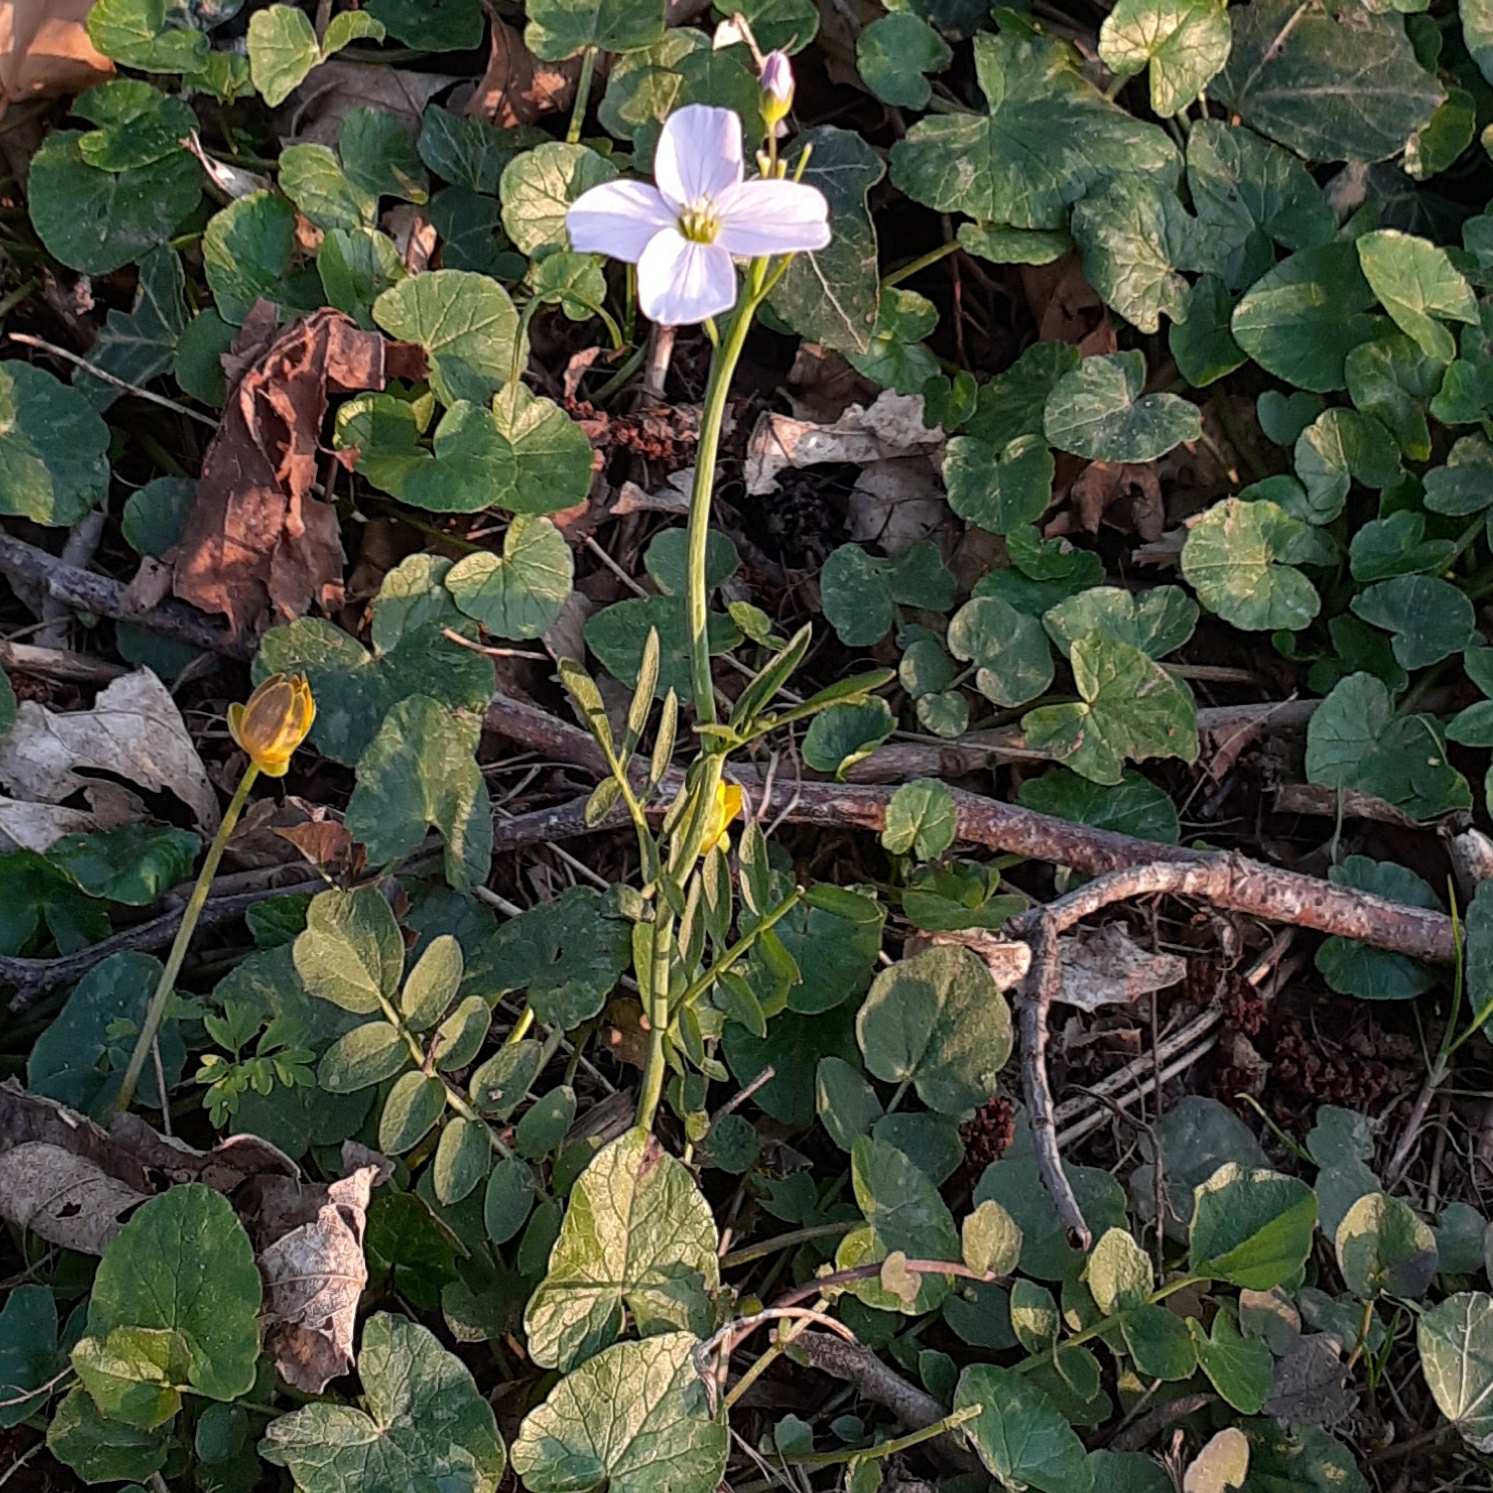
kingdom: Plantae
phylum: Tracheophyta
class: Magnoliopsida
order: Brassicales
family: Brassicaceae
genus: Cardamine
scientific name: Cardamine pratensis
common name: Cuckoo flower
